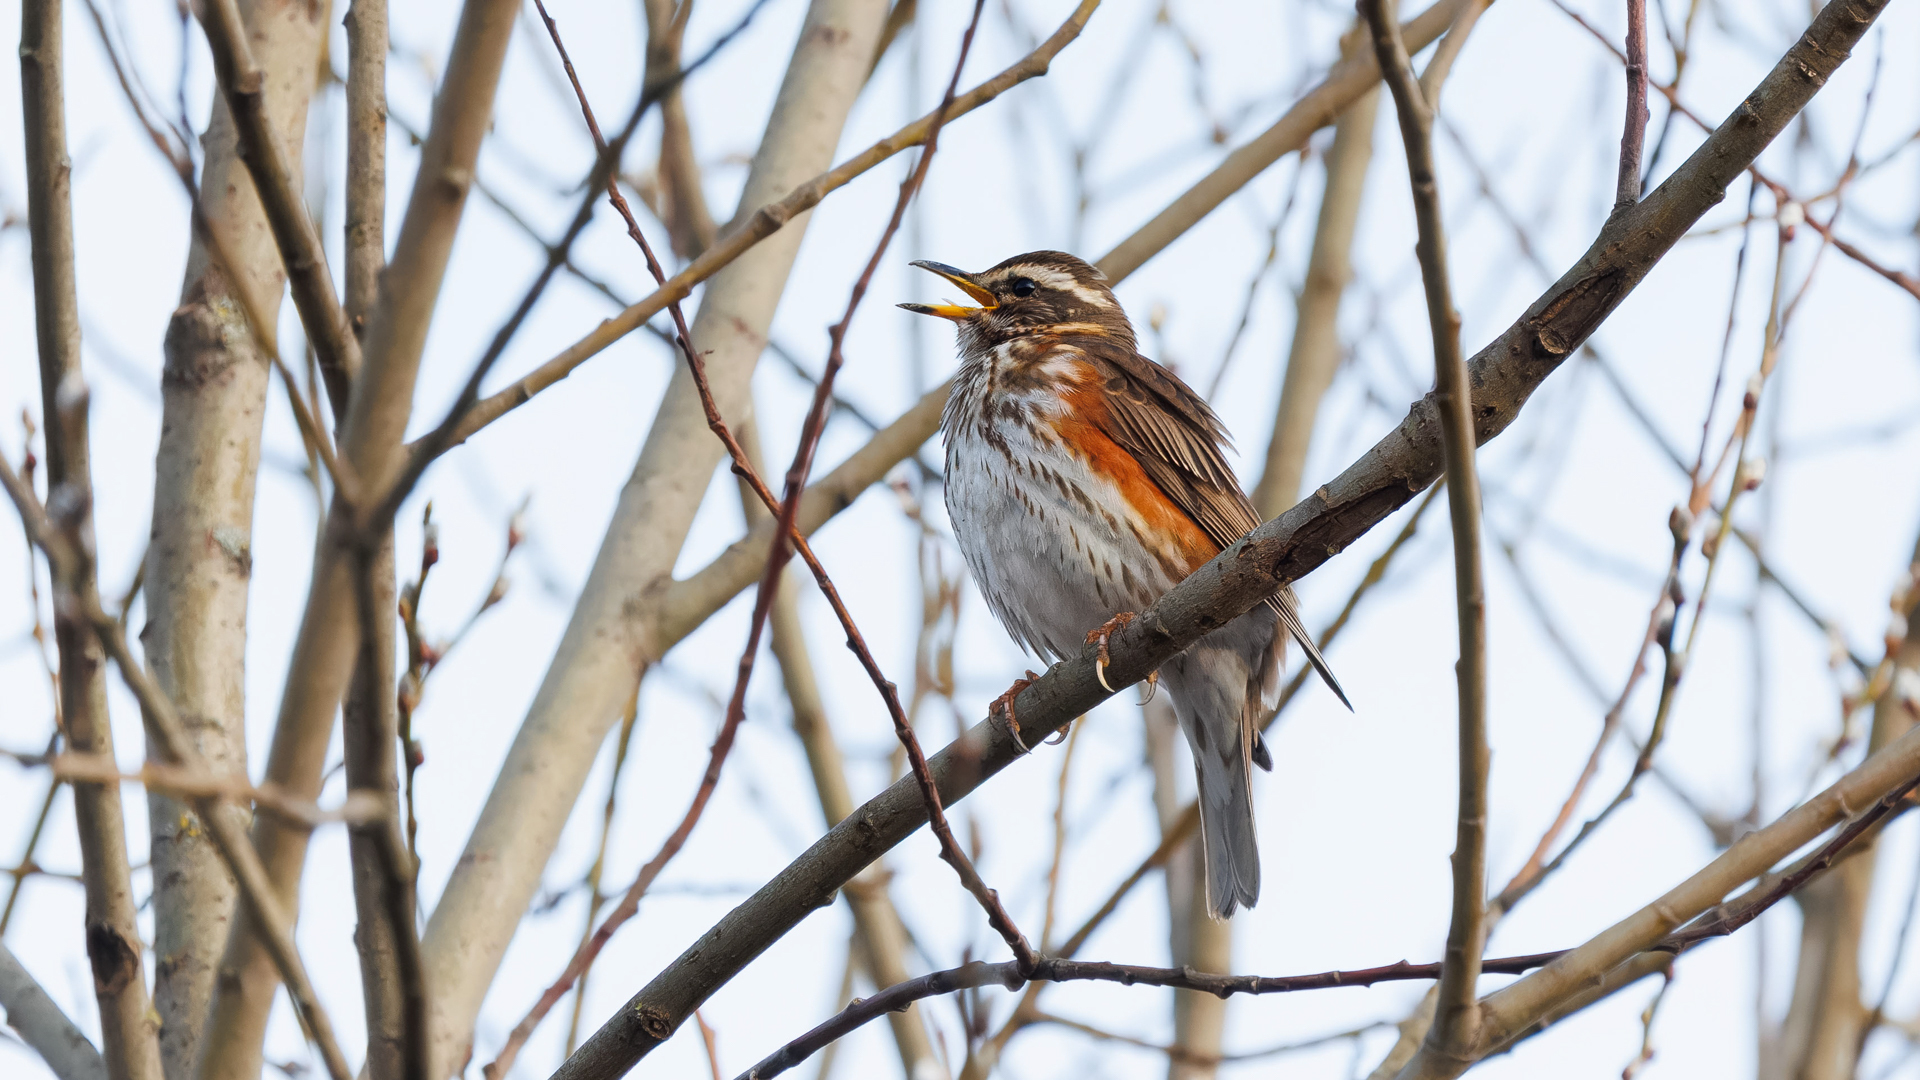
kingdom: Animalia
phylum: Chordata
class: Aves
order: Passeriformes
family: Turdidae
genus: Turdus
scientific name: Turdus iliacus
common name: Redwing
